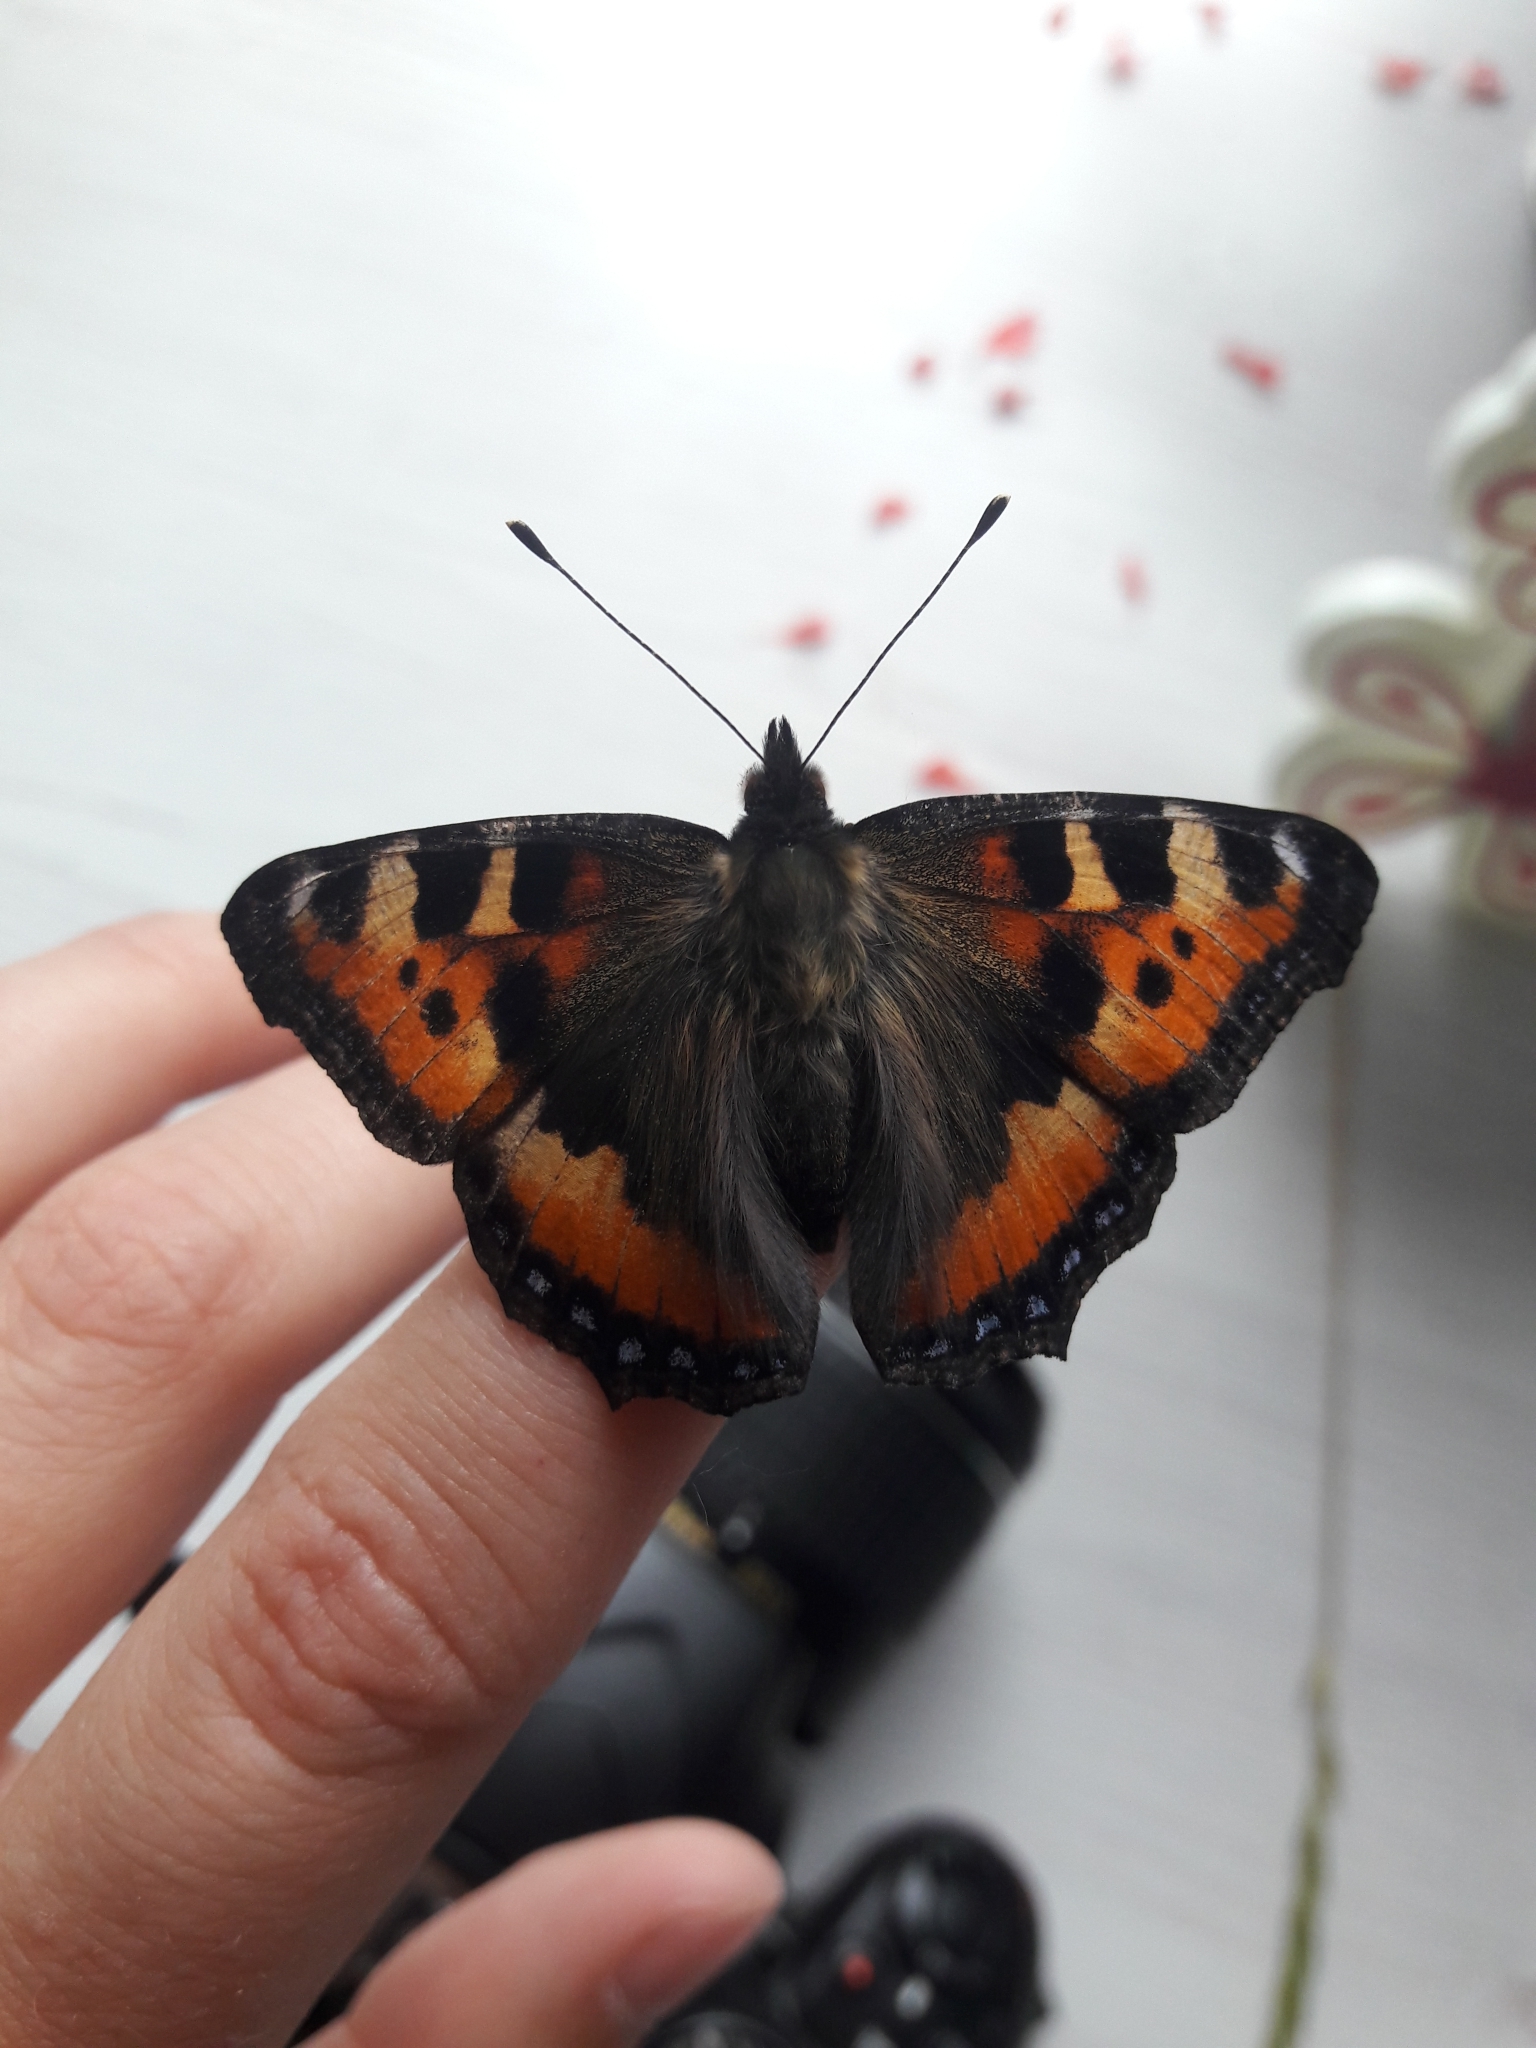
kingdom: Animalia
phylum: Arthropoda
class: Insecta
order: Lepidoptera
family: Nymphalidae
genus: Aglais
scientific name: Aglais urticae
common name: Small tortoiseshell
